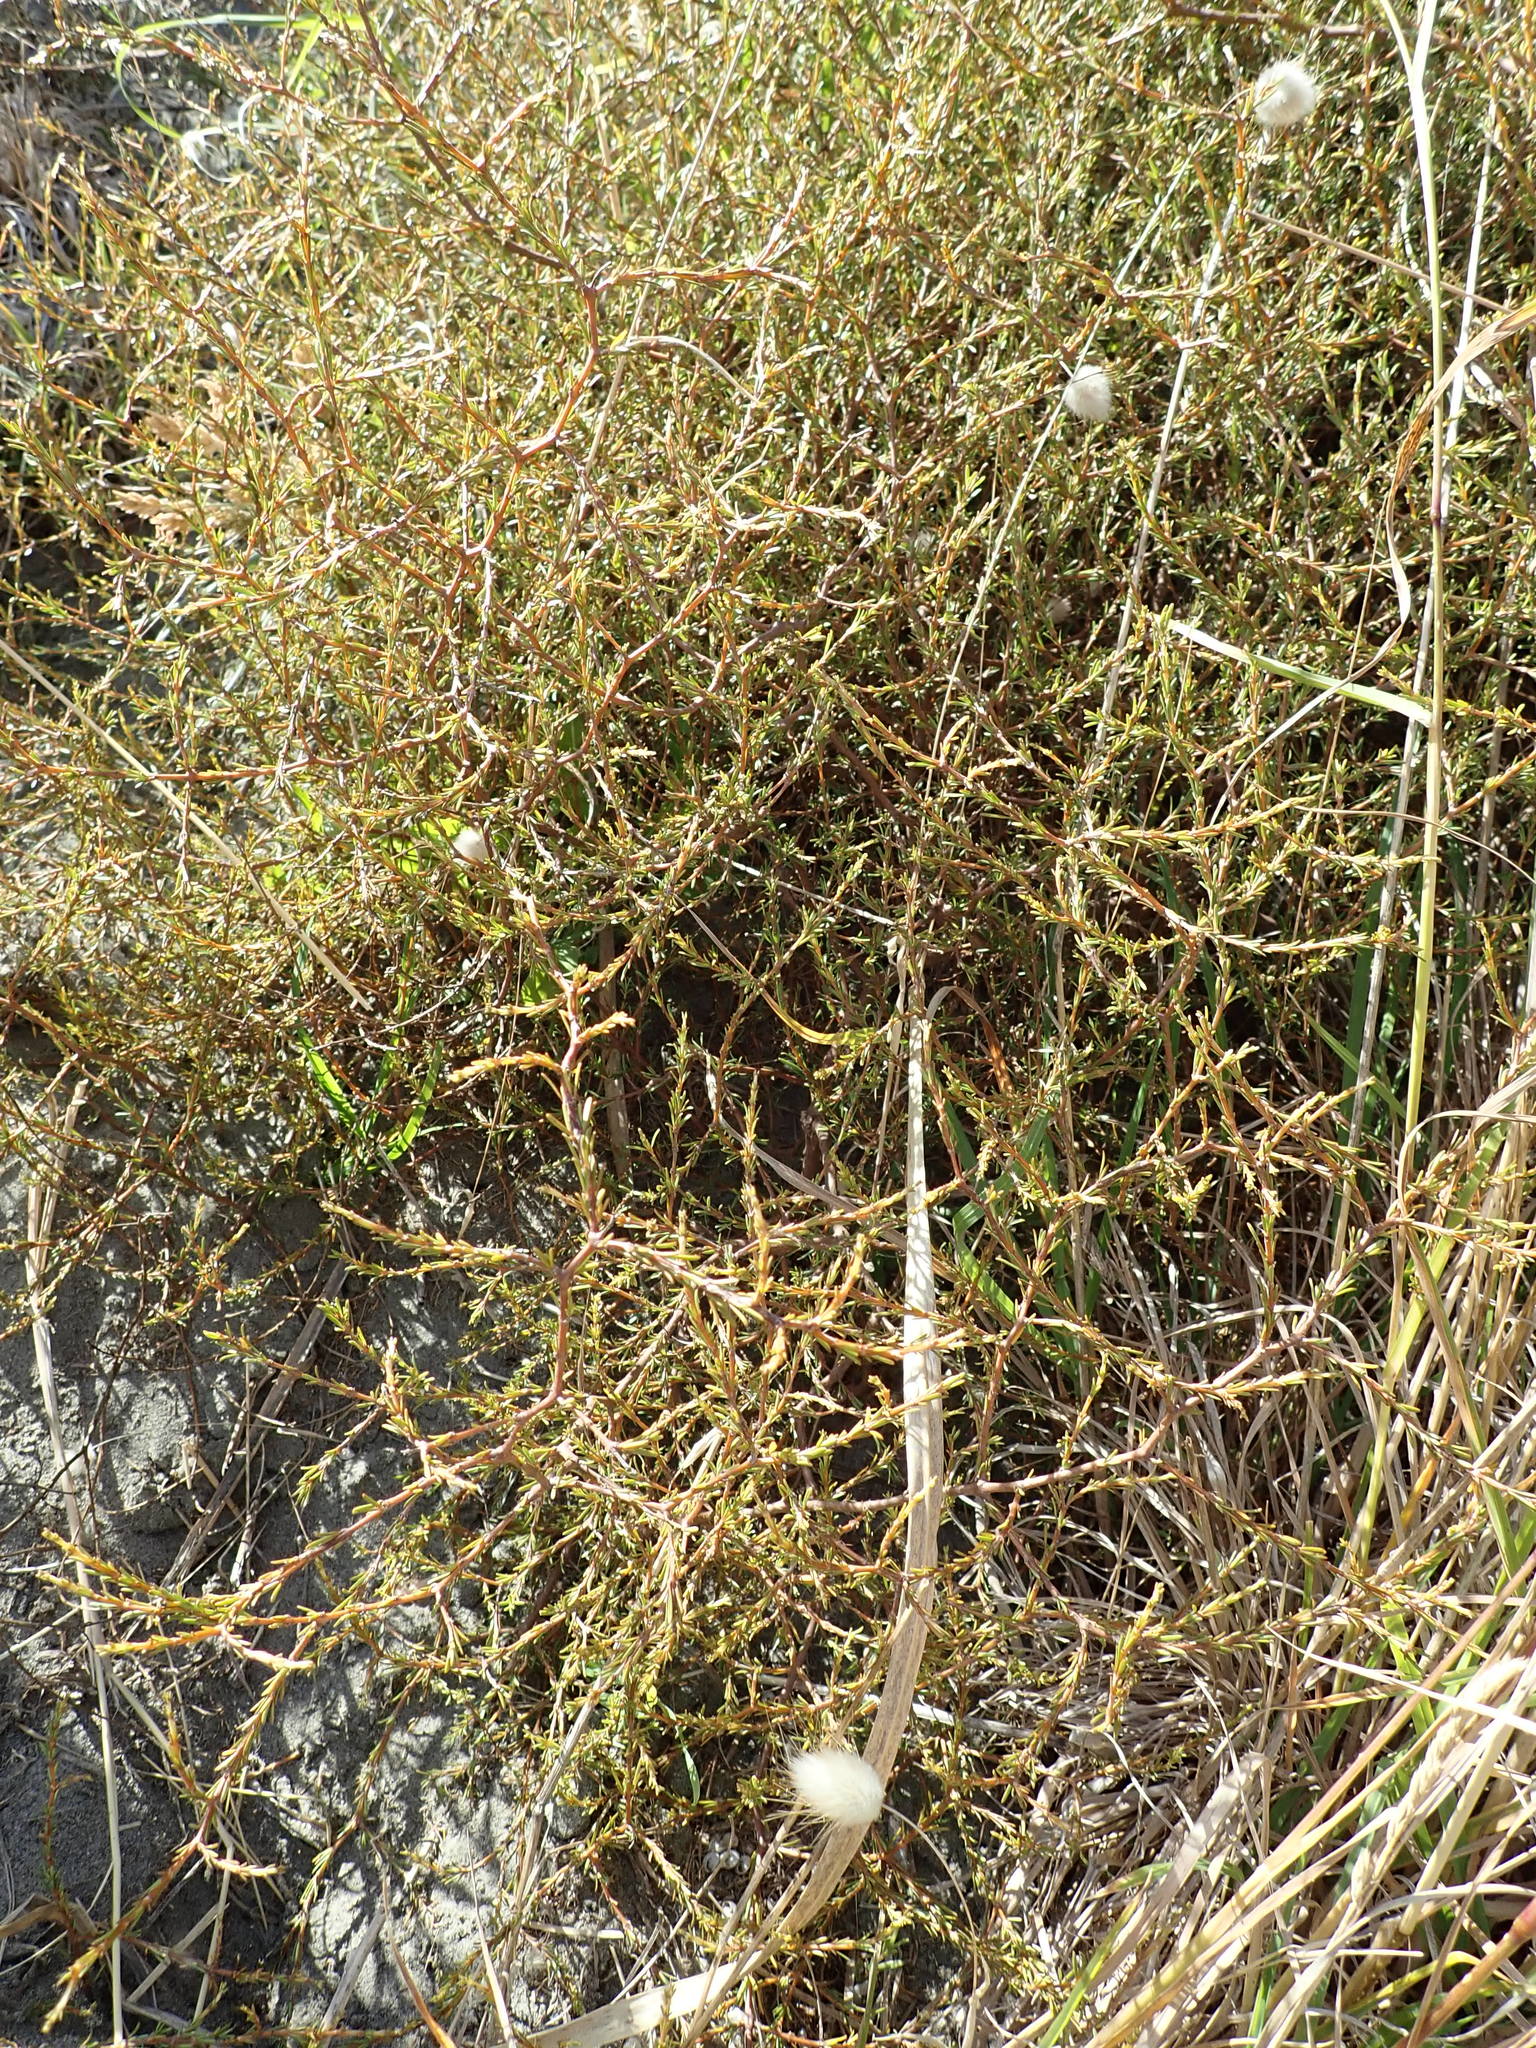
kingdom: Plantae
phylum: Tracheophyta
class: Magnoliopsida
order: Gentianales
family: Rubiaceae
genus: Coprosma
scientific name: Coprosma acerosa
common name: Sand coprosma
